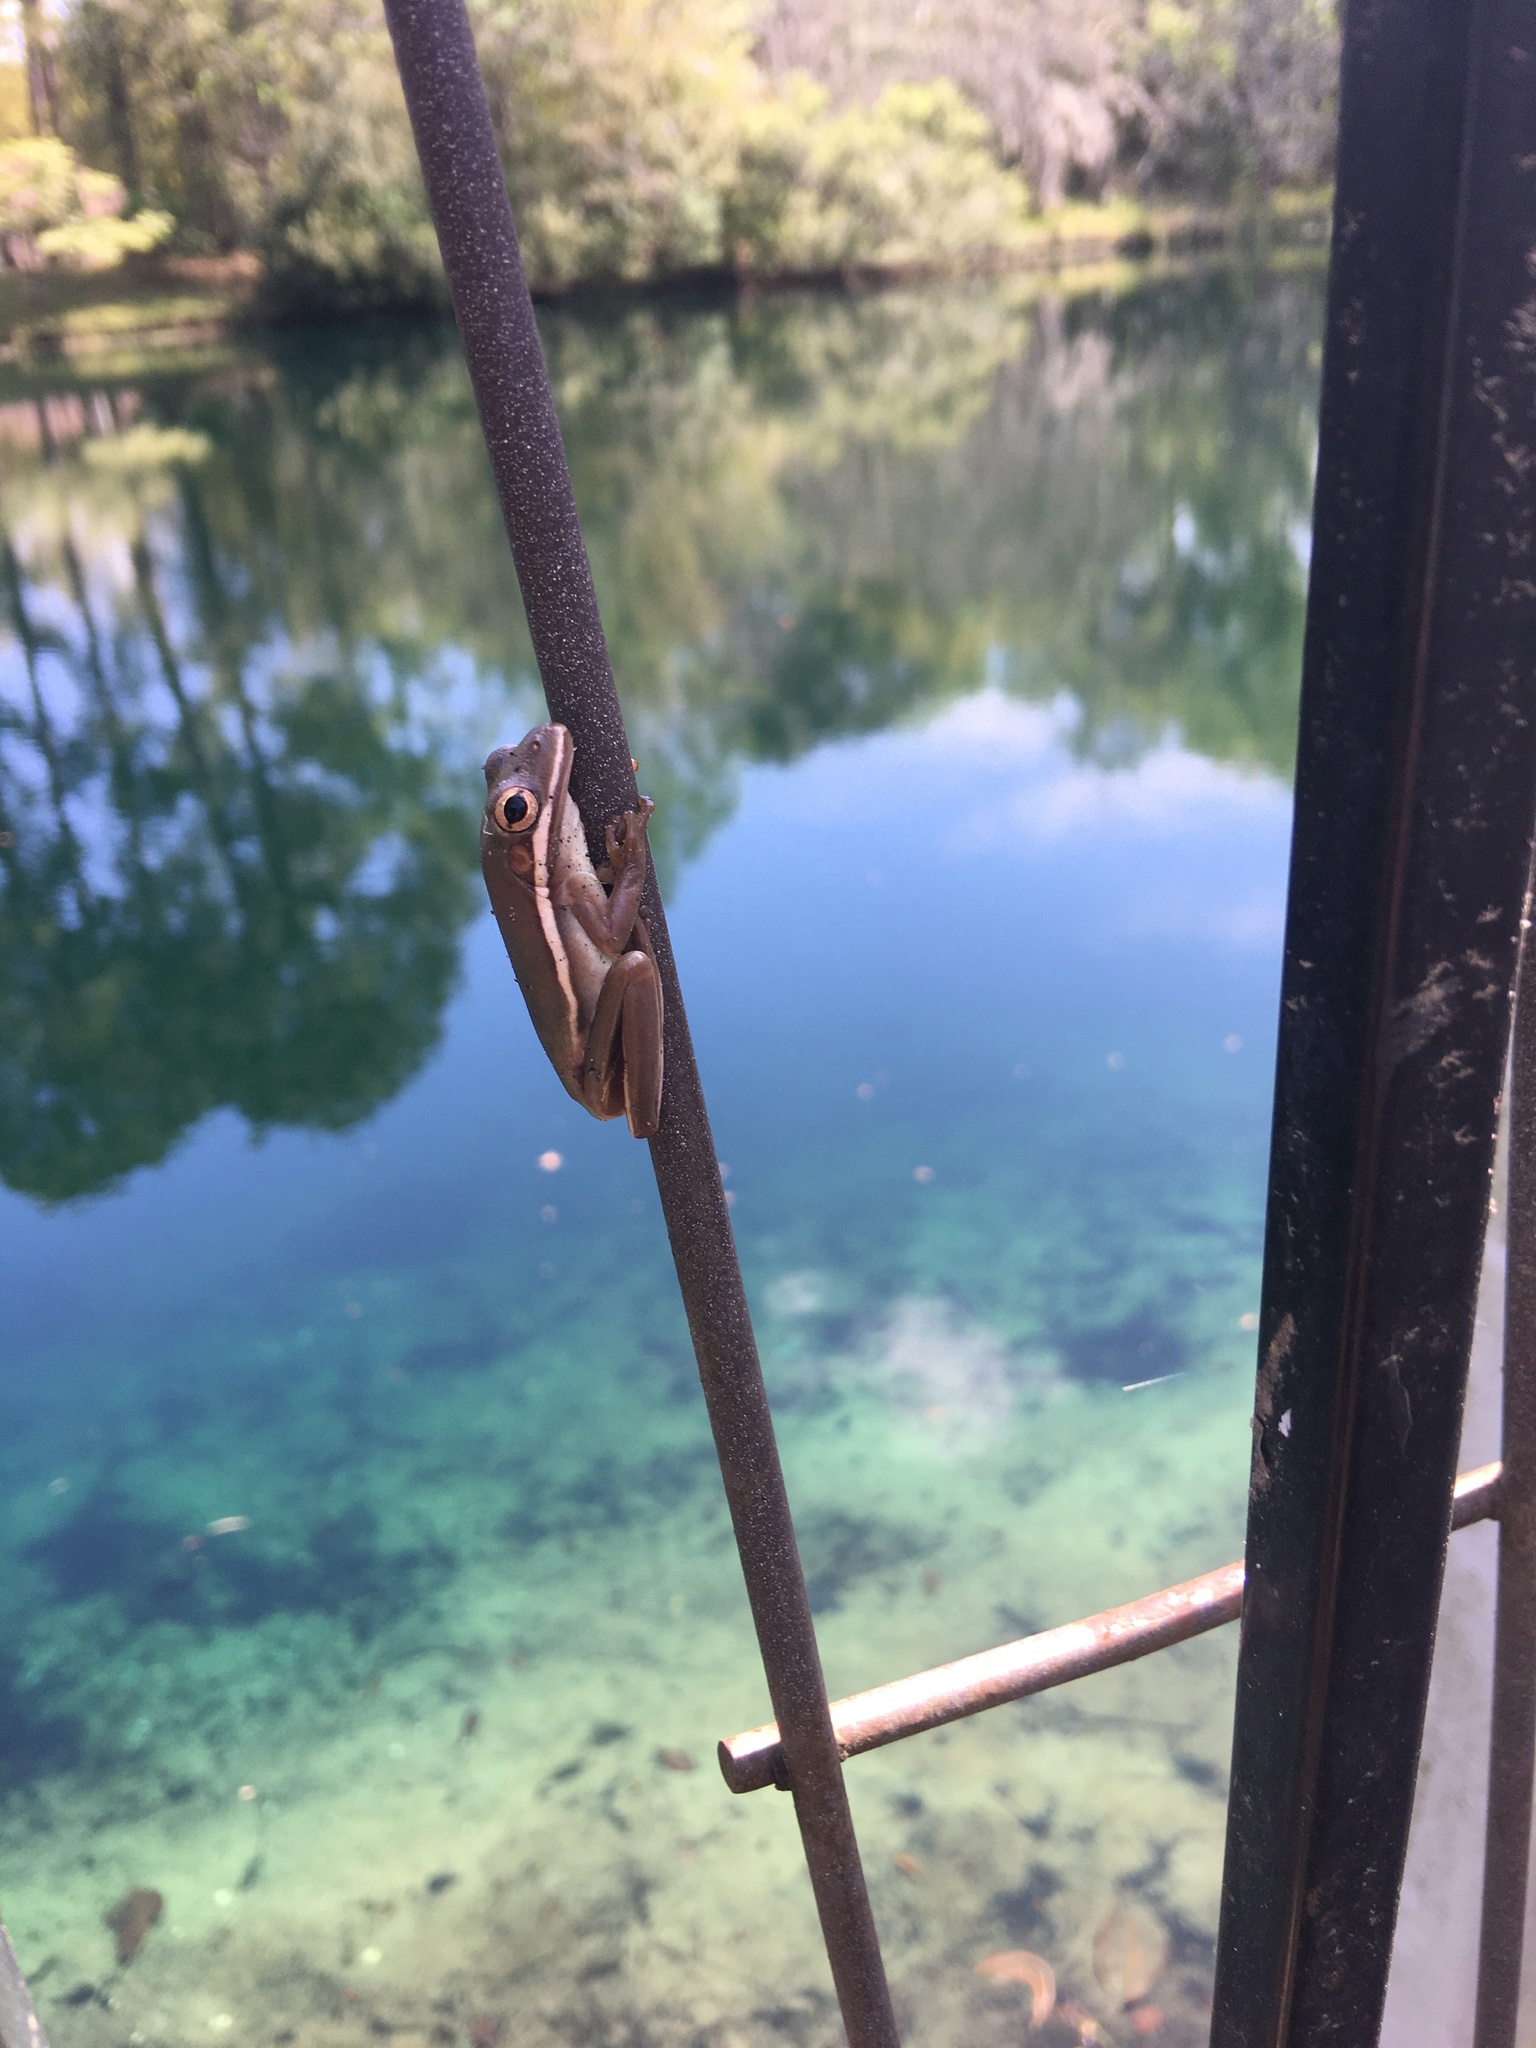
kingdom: Animalia
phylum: Chordata
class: Amphibia
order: Anura
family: Hylidae
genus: Dryophytes
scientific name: Dryophytes cinereus
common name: Green treefrog
